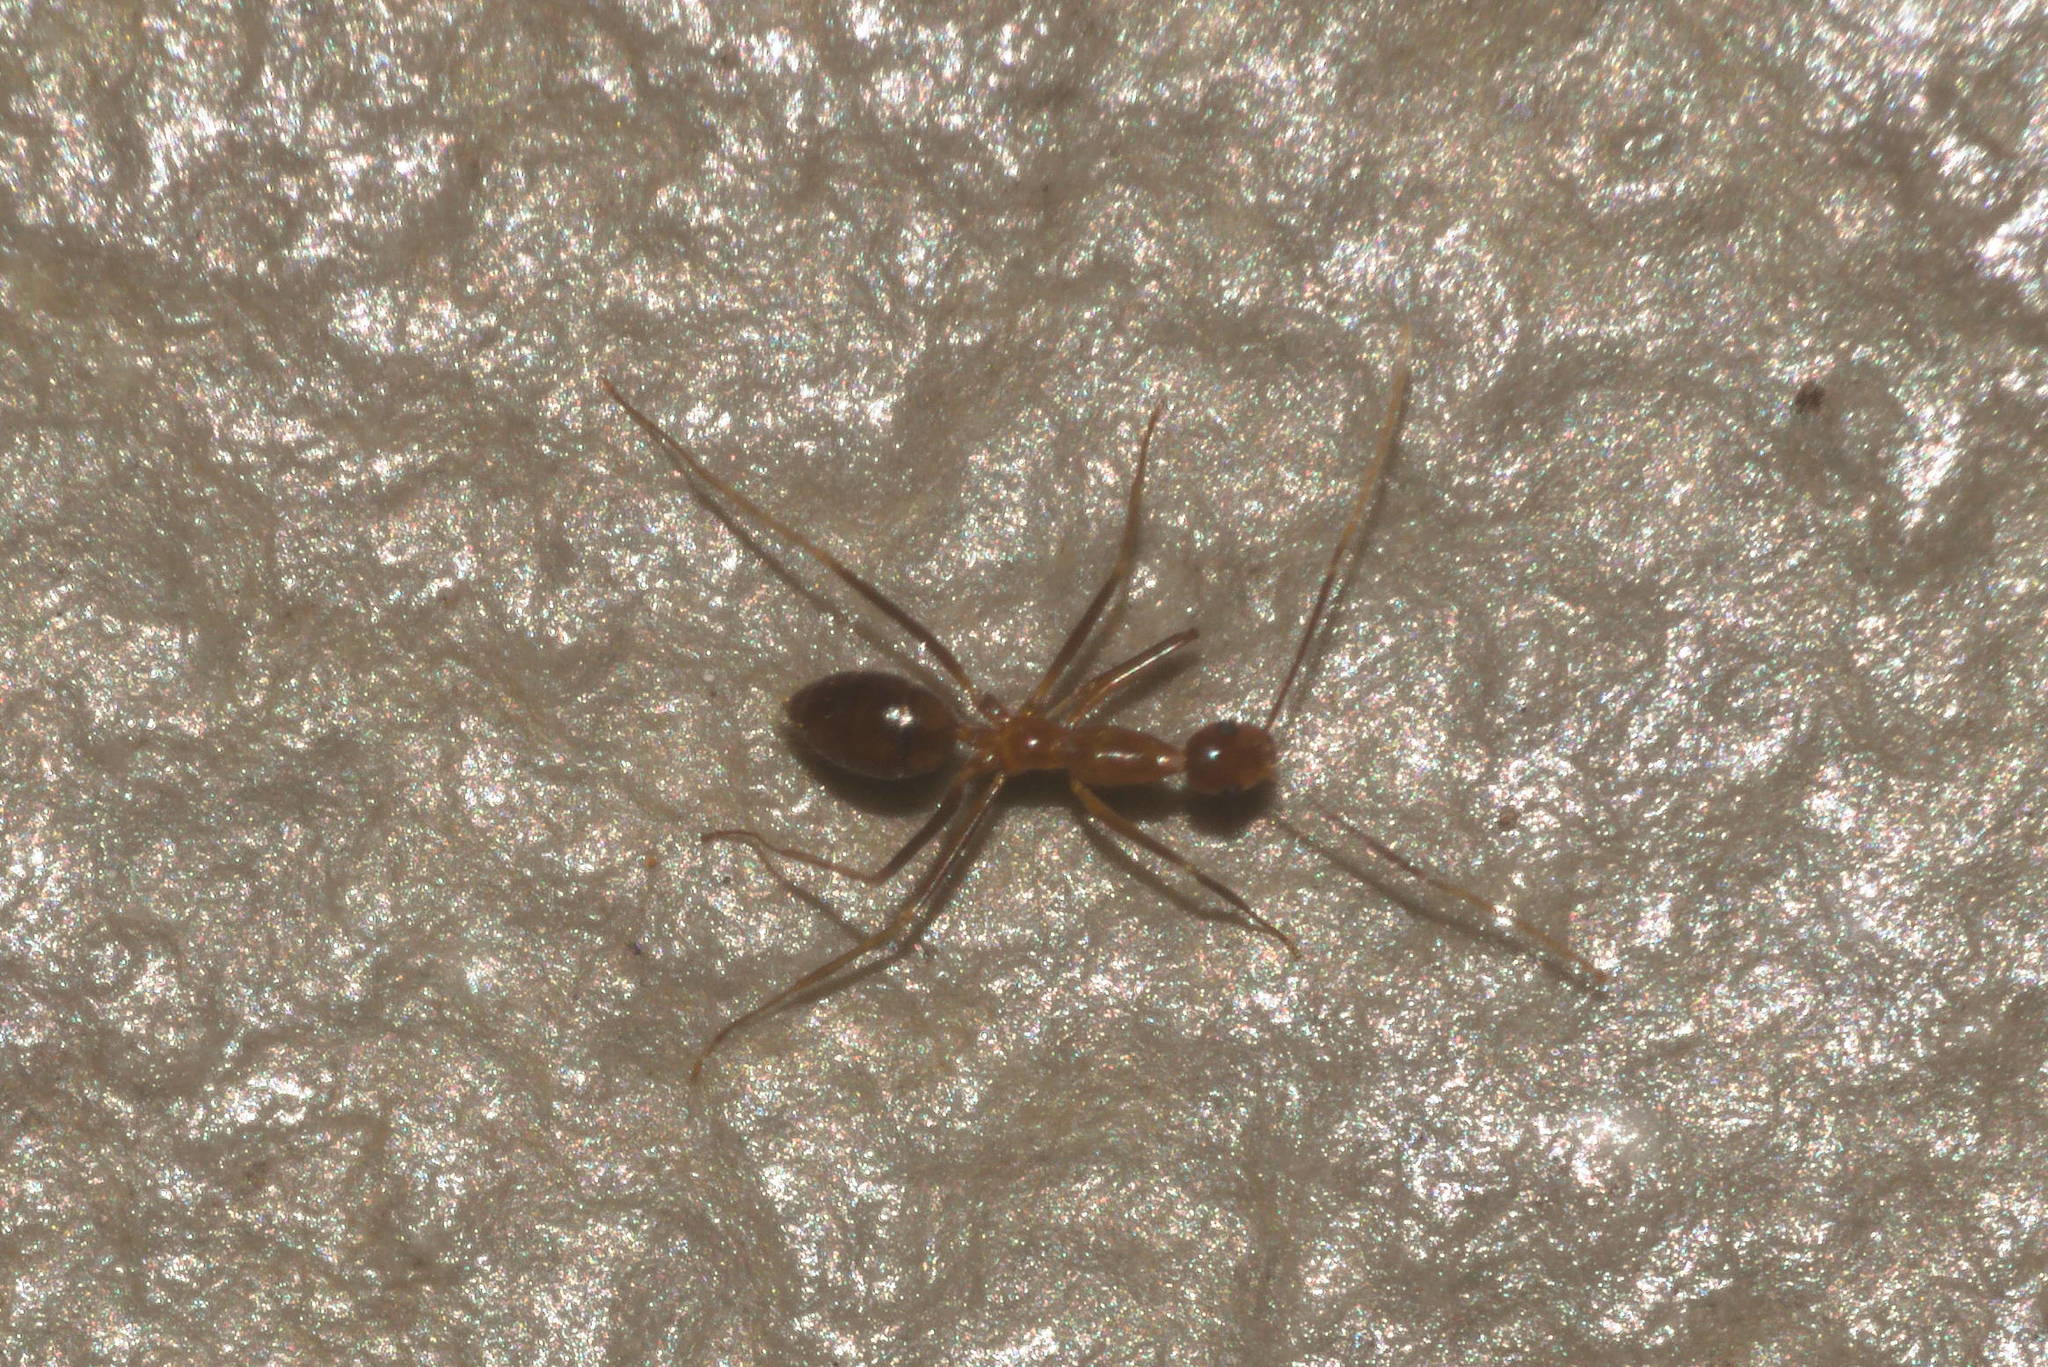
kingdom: Animalia
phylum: Arthropoda
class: Insecta
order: Hymenoptera
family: Formicidae
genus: Anoplolepis
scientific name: Anoplolepis gracilipes
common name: Ant
